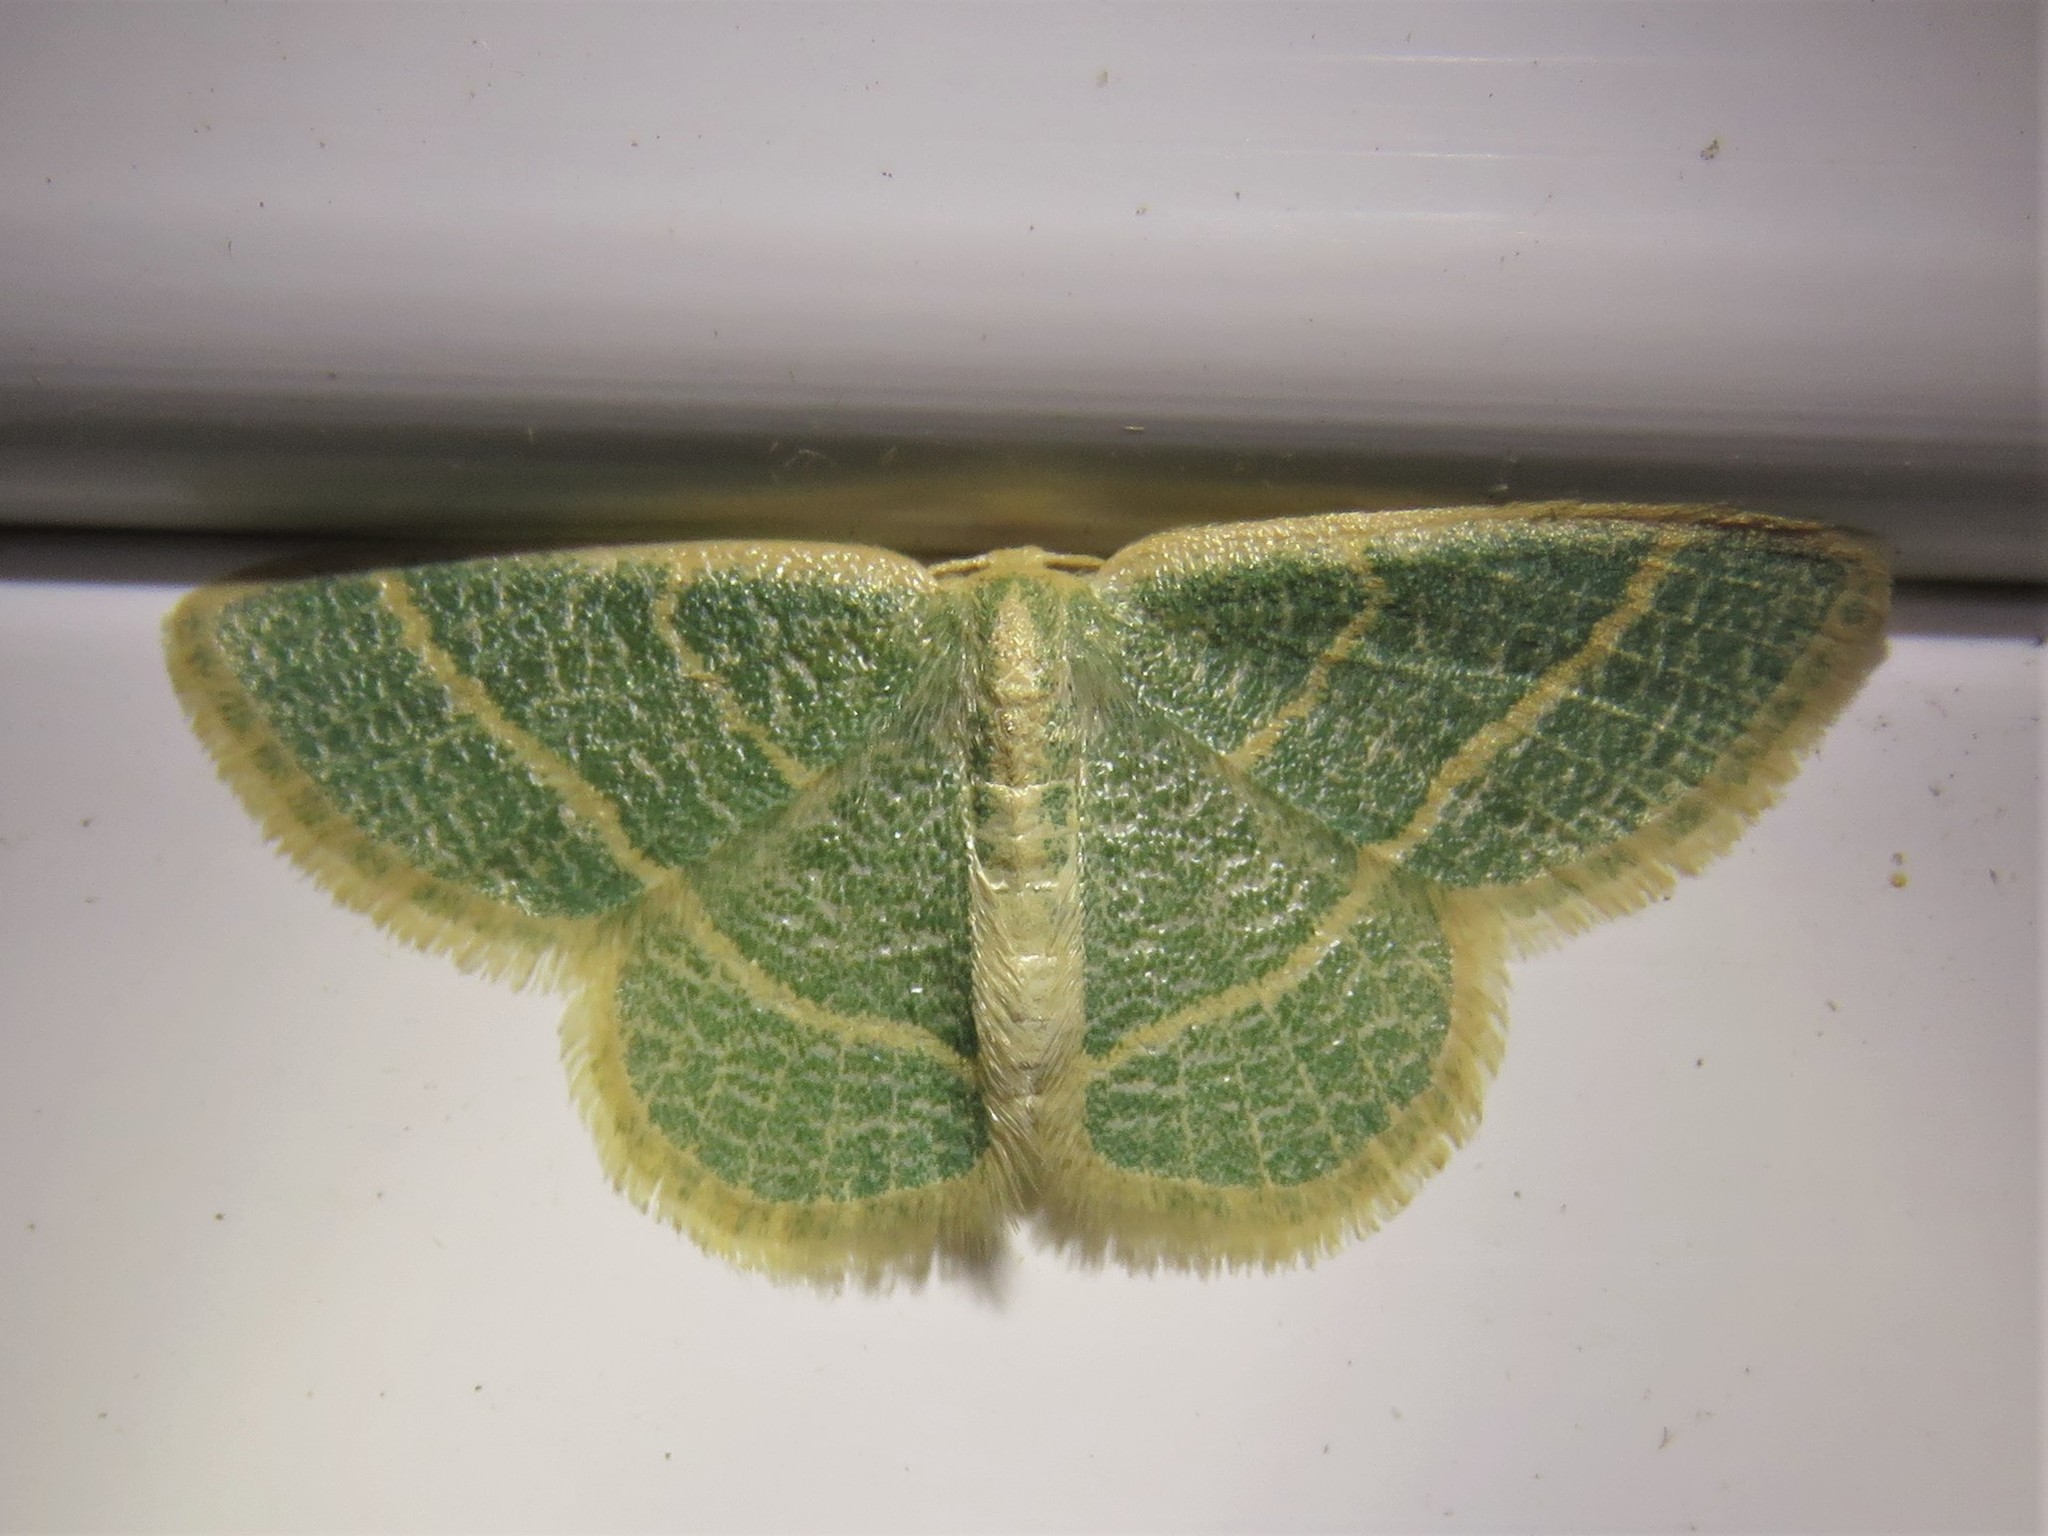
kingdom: Animalia
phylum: Arthropoda
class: Insecta
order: Lepidoptera
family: Geometridae
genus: Chlorochlamys
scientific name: Chlorochlamys chloroleucaria
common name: Blackberry looper
